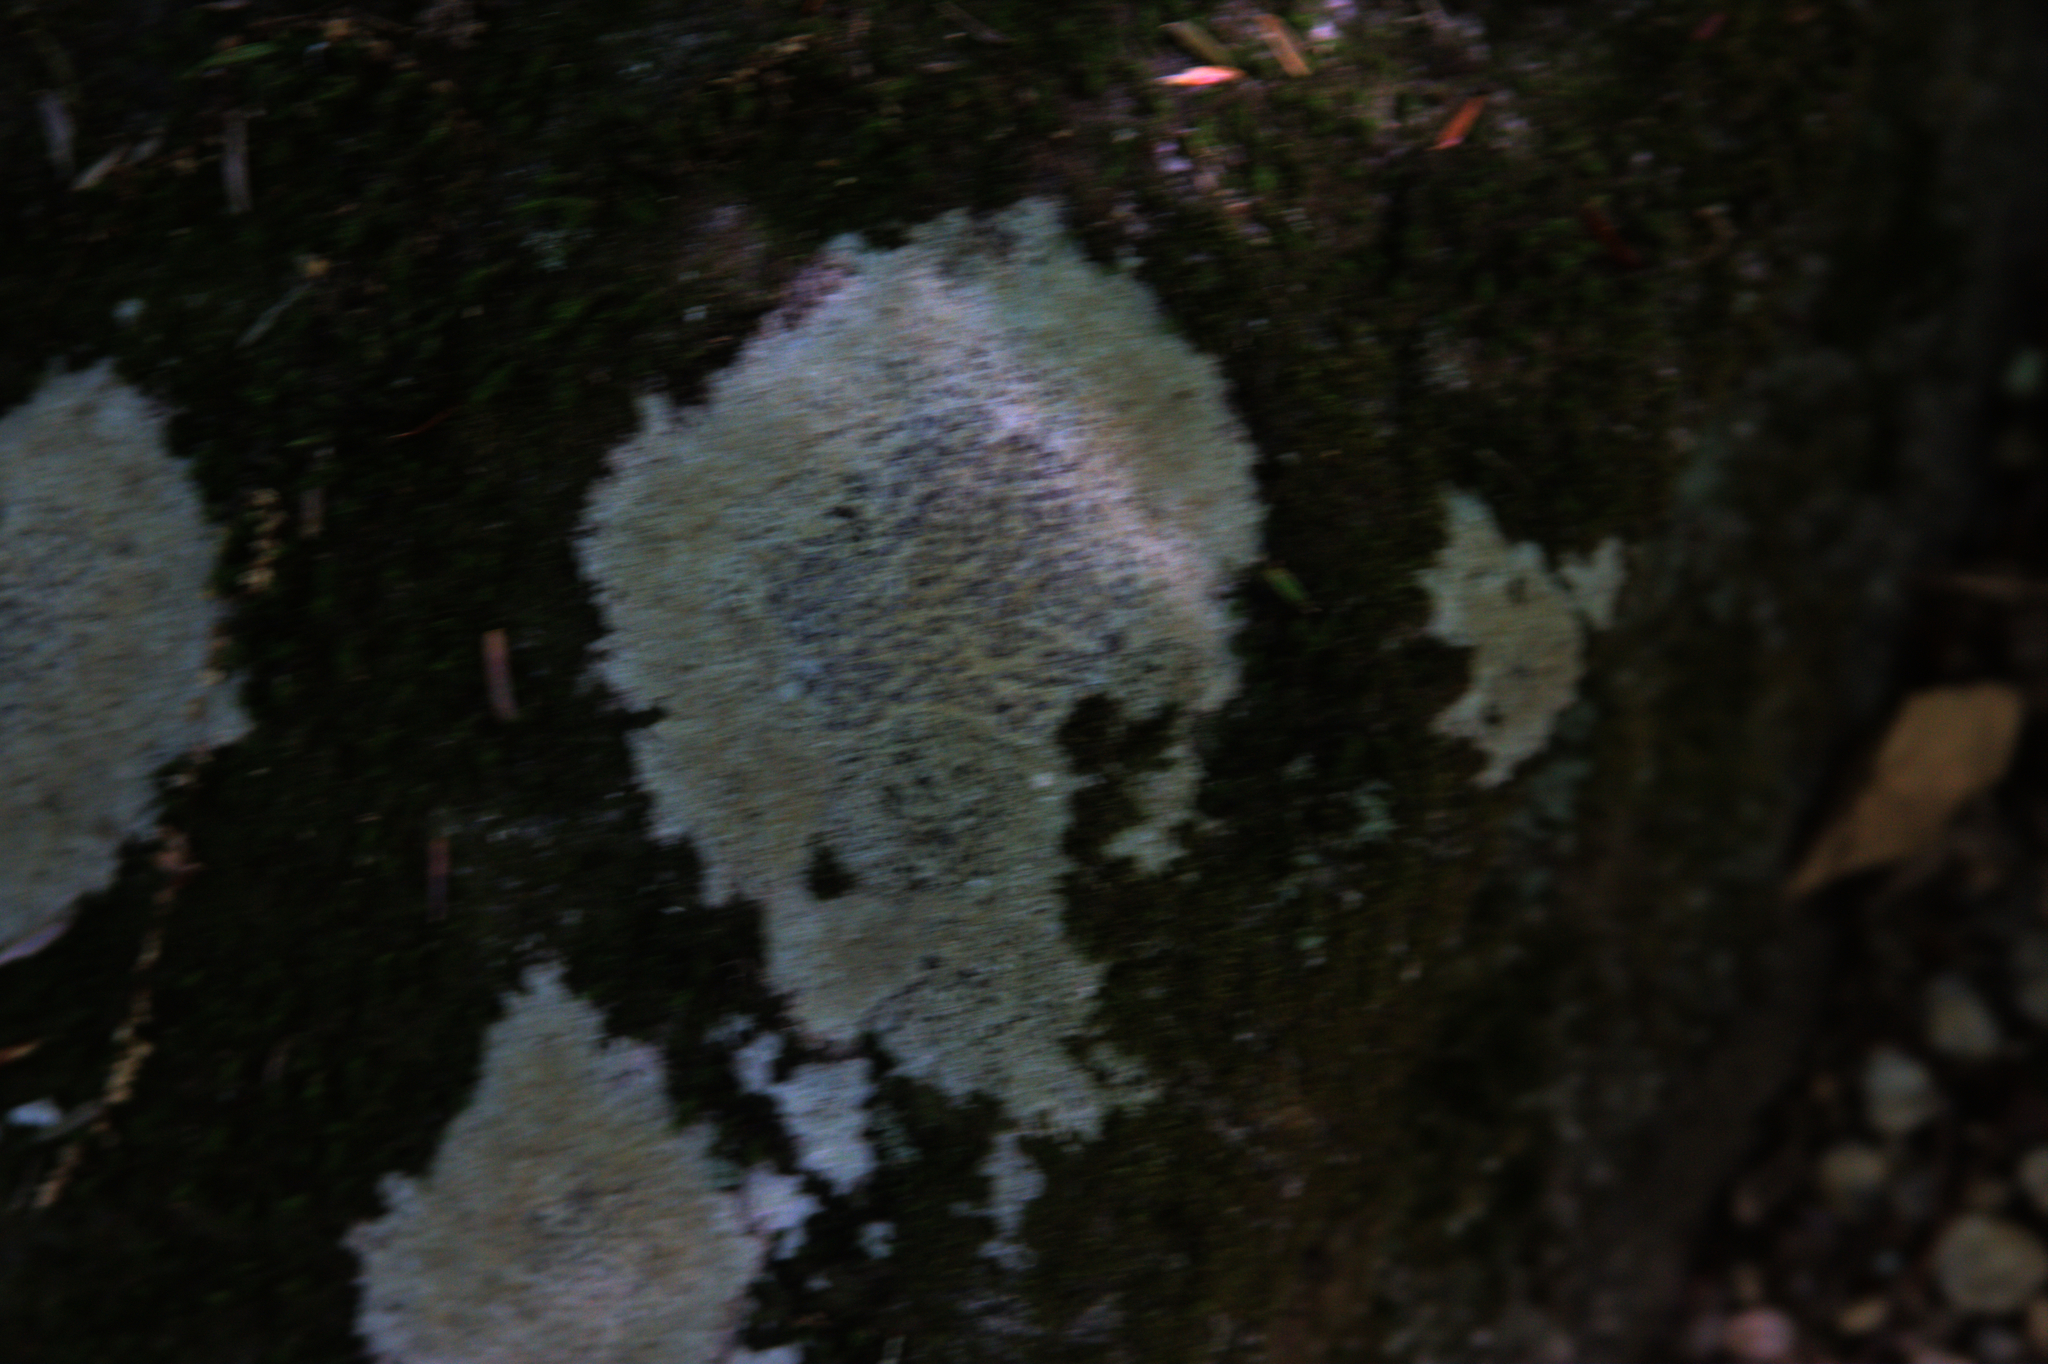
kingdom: Fungi
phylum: Ascomycota
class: Lecanoromycetes
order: Lecideales
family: Lecideaceae
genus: Porpidia
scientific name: Porpidia albocaerulescens
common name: Smokey-eyed boulder lichen
